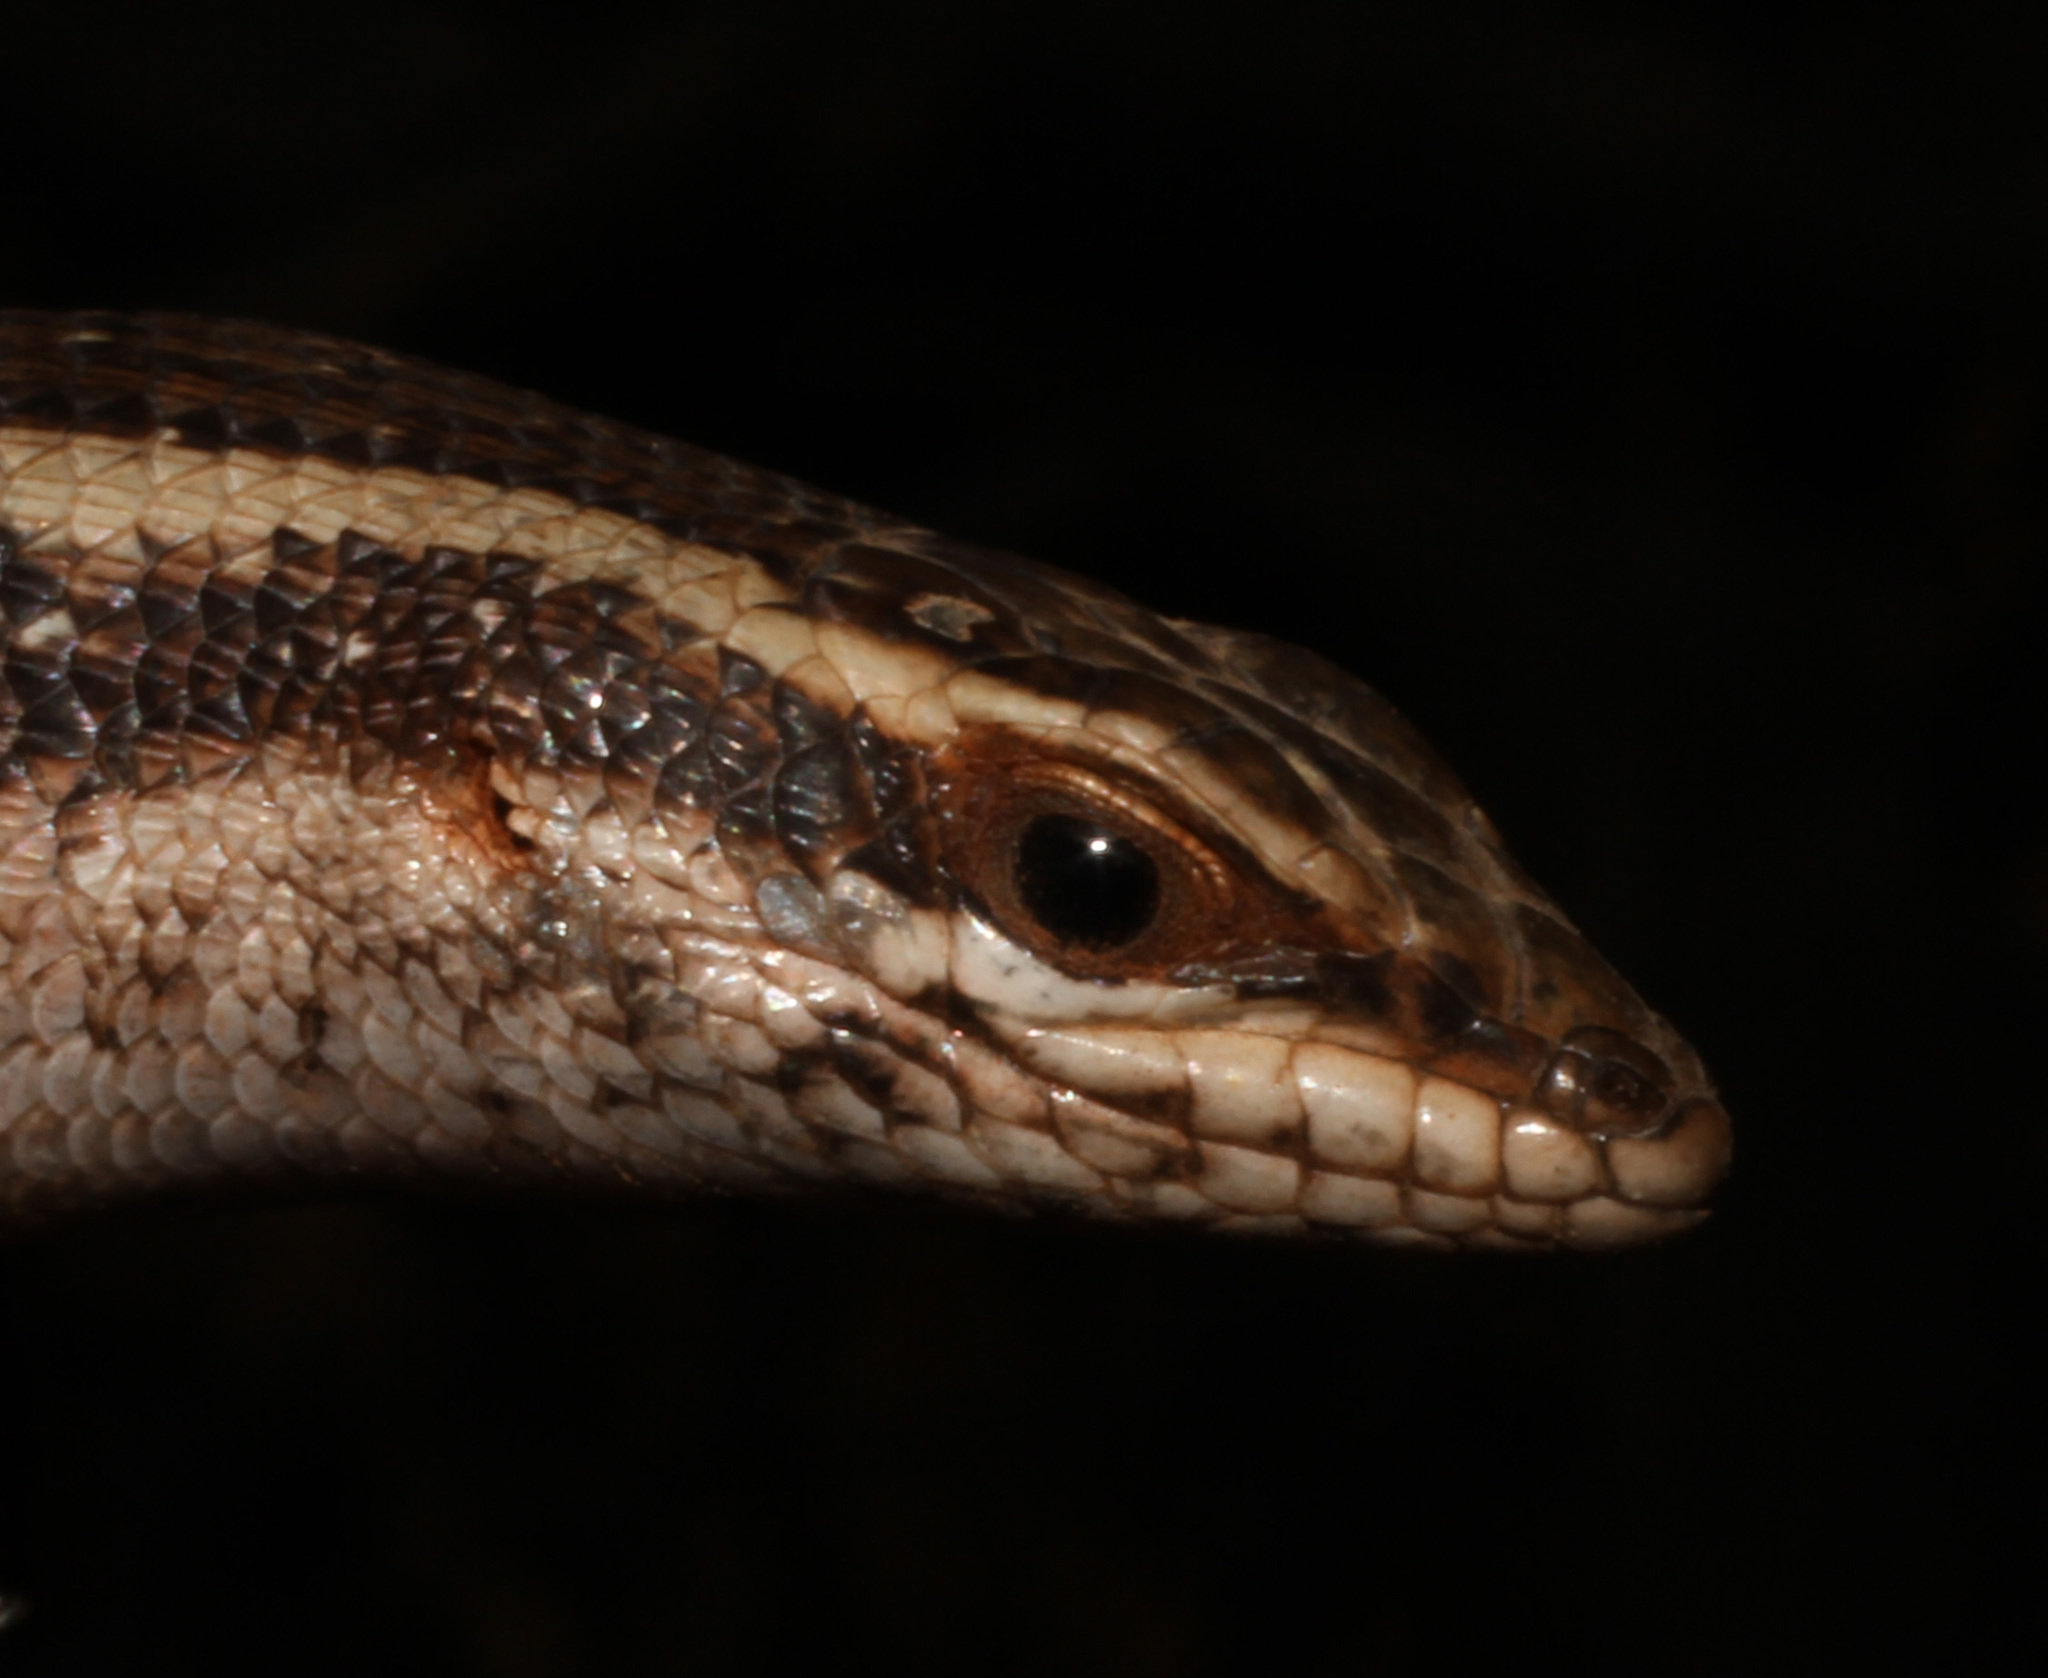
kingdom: Animalia
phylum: Chordata
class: Squamata
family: Scincidae
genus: Trachylepis
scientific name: Trachylepis spilogaster
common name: Kalahari tree skink
